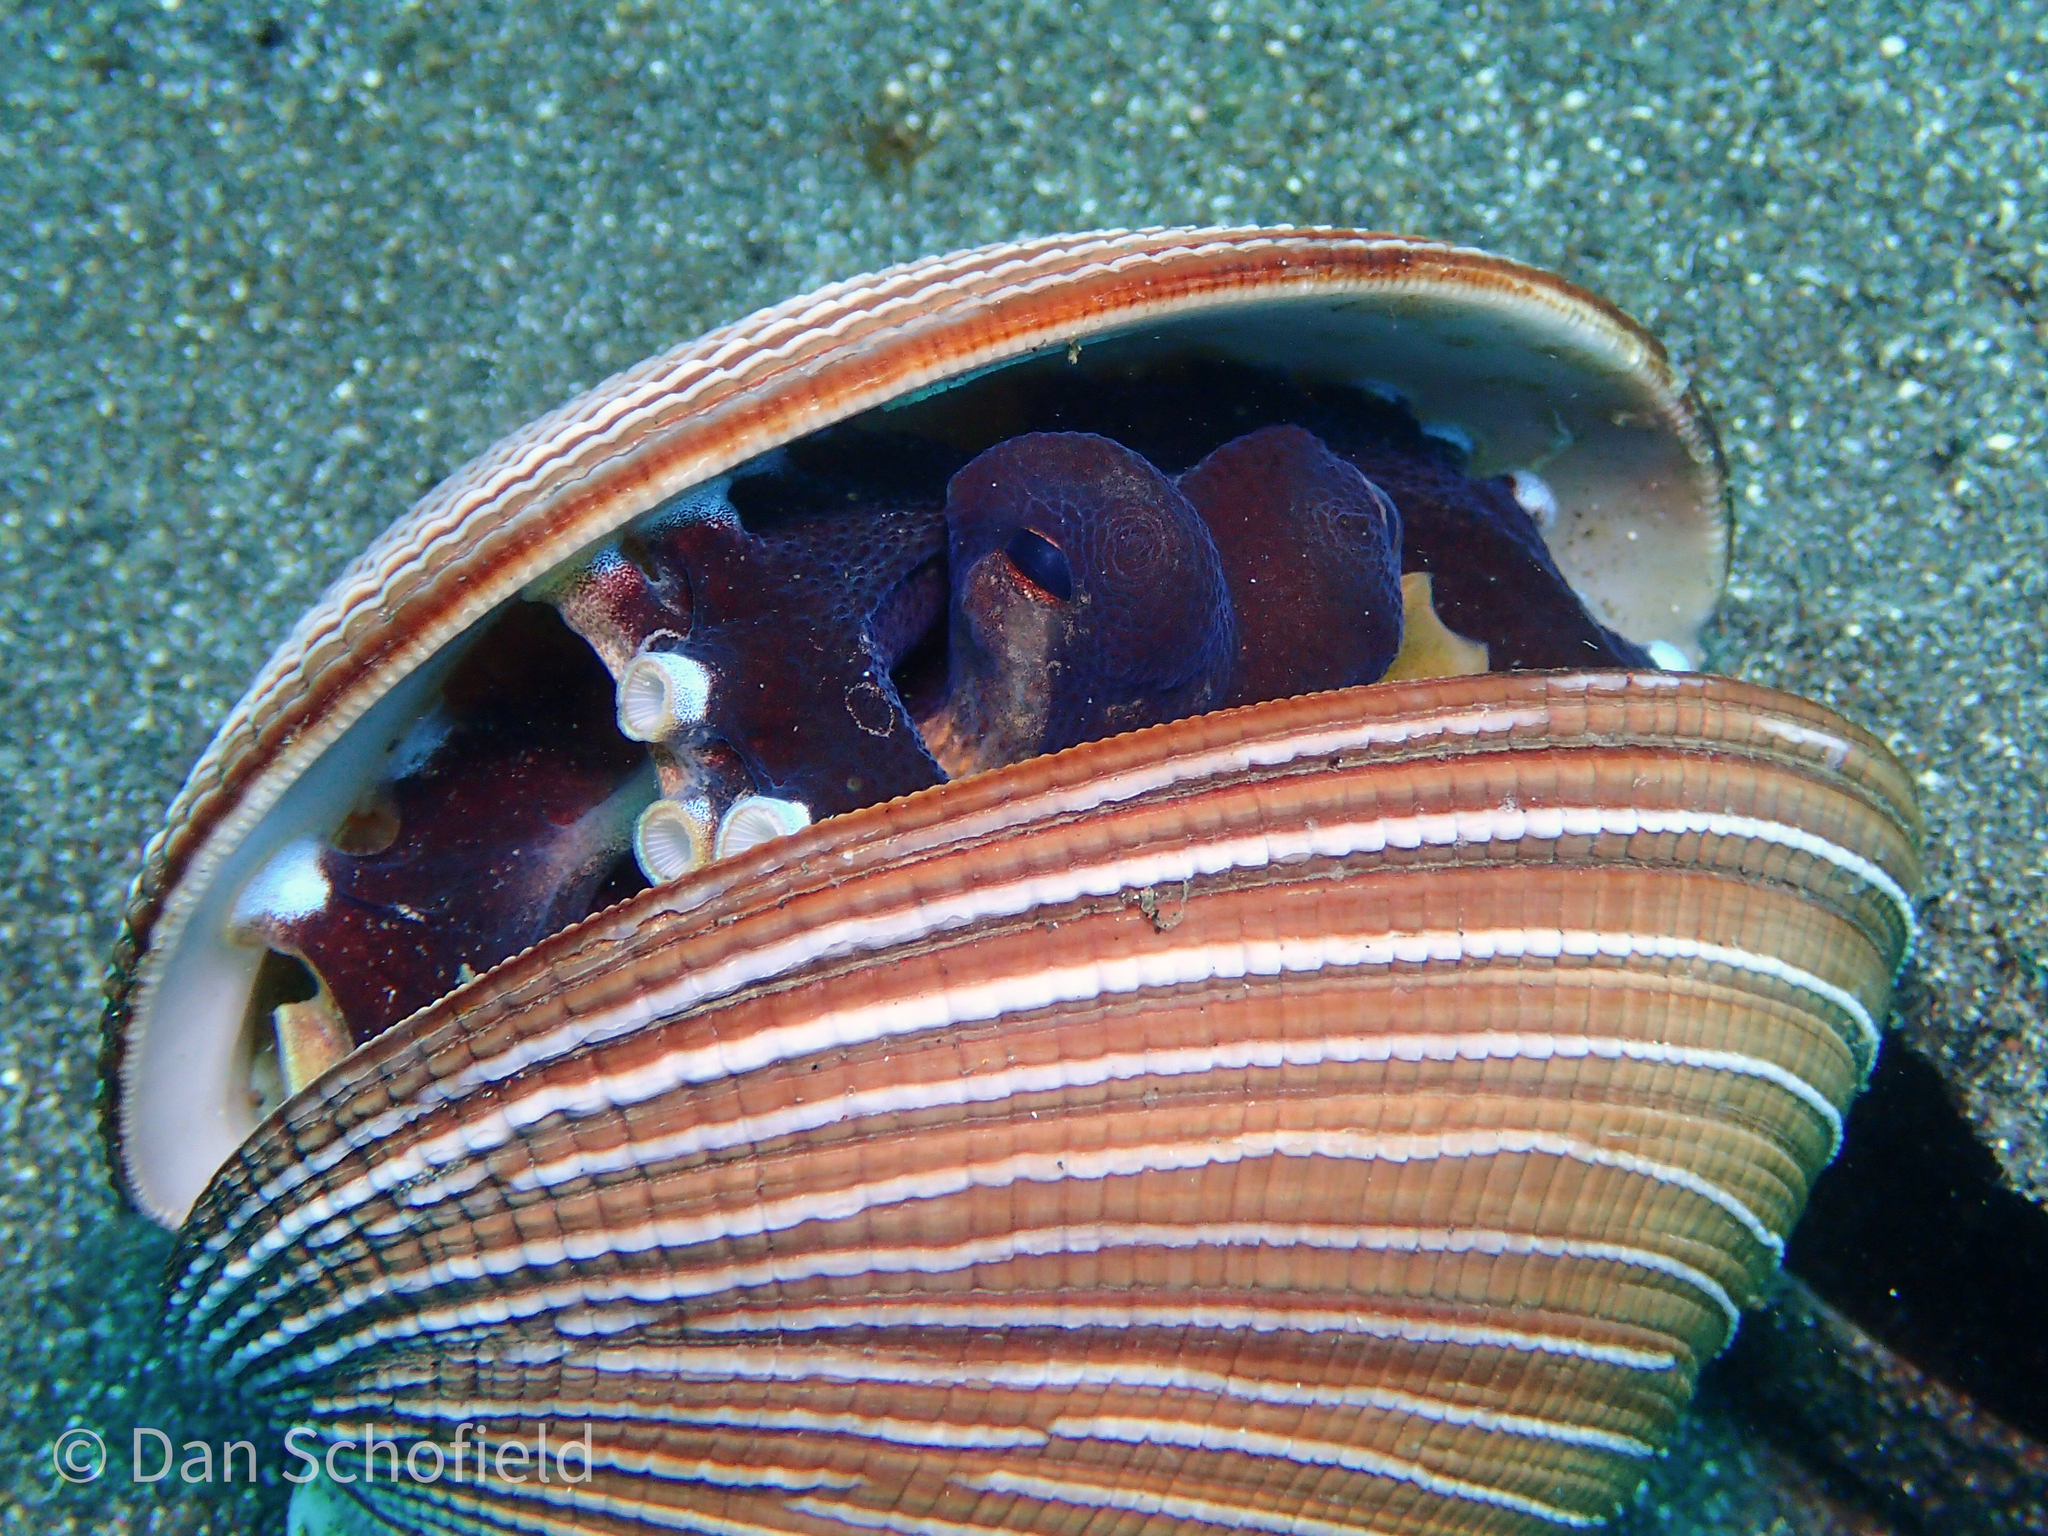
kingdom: Animalia
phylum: Mollusca
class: Cephalopoda
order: Octopoda
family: Octopodidae
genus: Amphioctopus
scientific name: Amphioctopus marginatus
